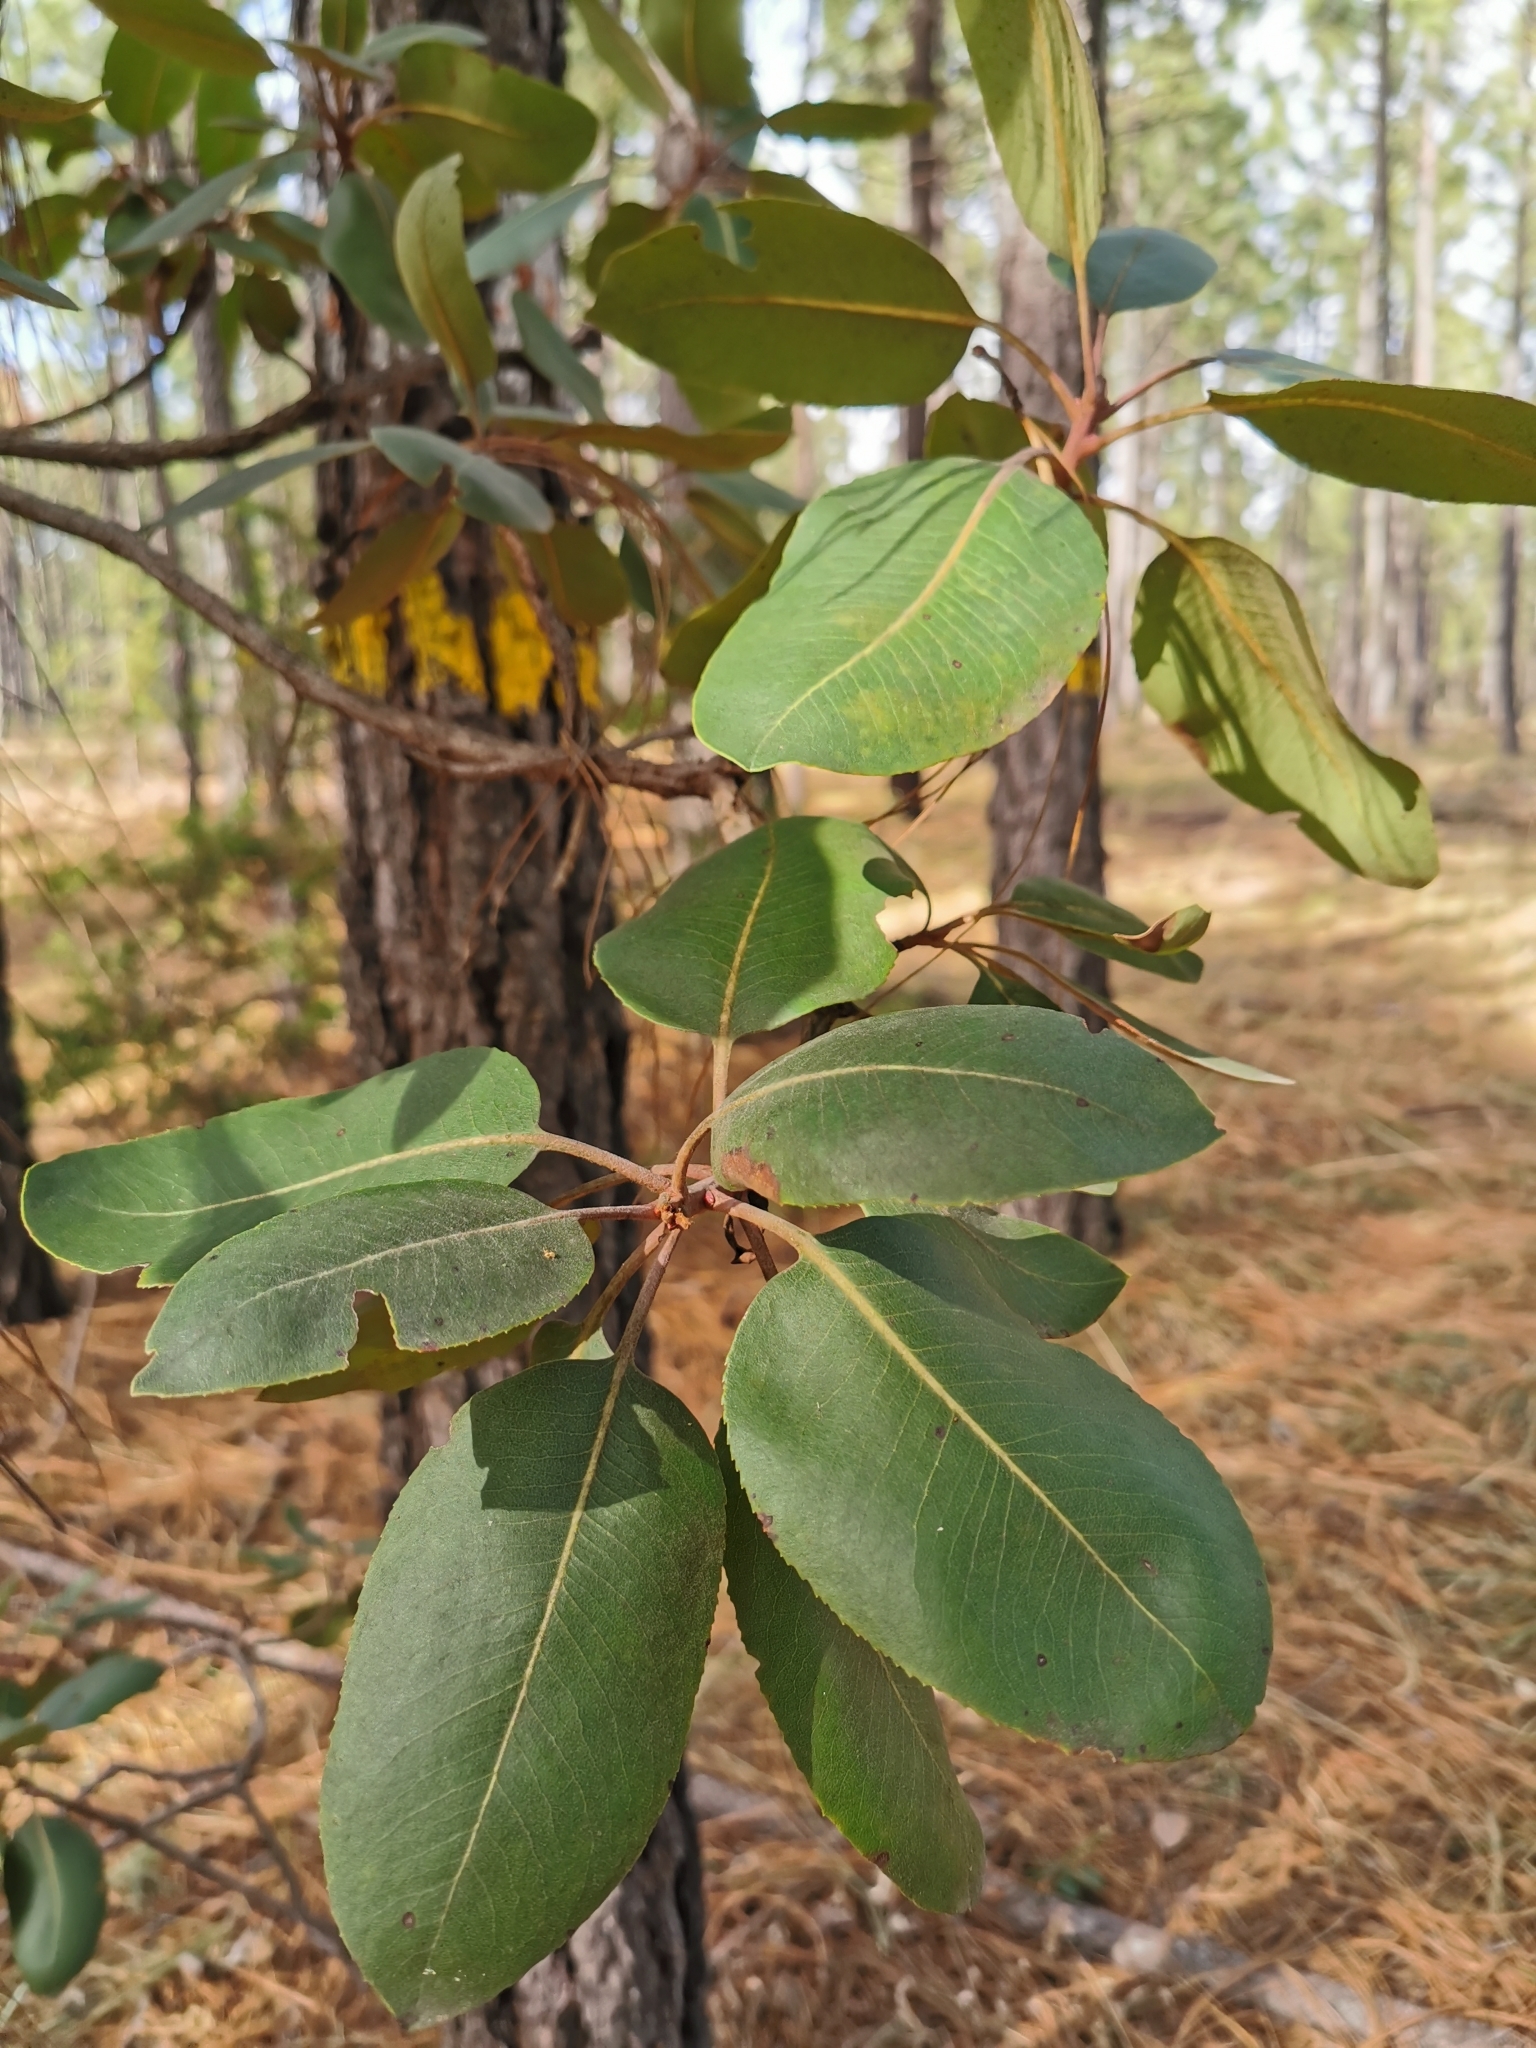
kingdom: Plantae
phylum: Tracheophyta
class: Magnoliopsida
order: Ericales
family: Ericaceae
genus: Arbutus
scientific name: Arbutus madrensis
